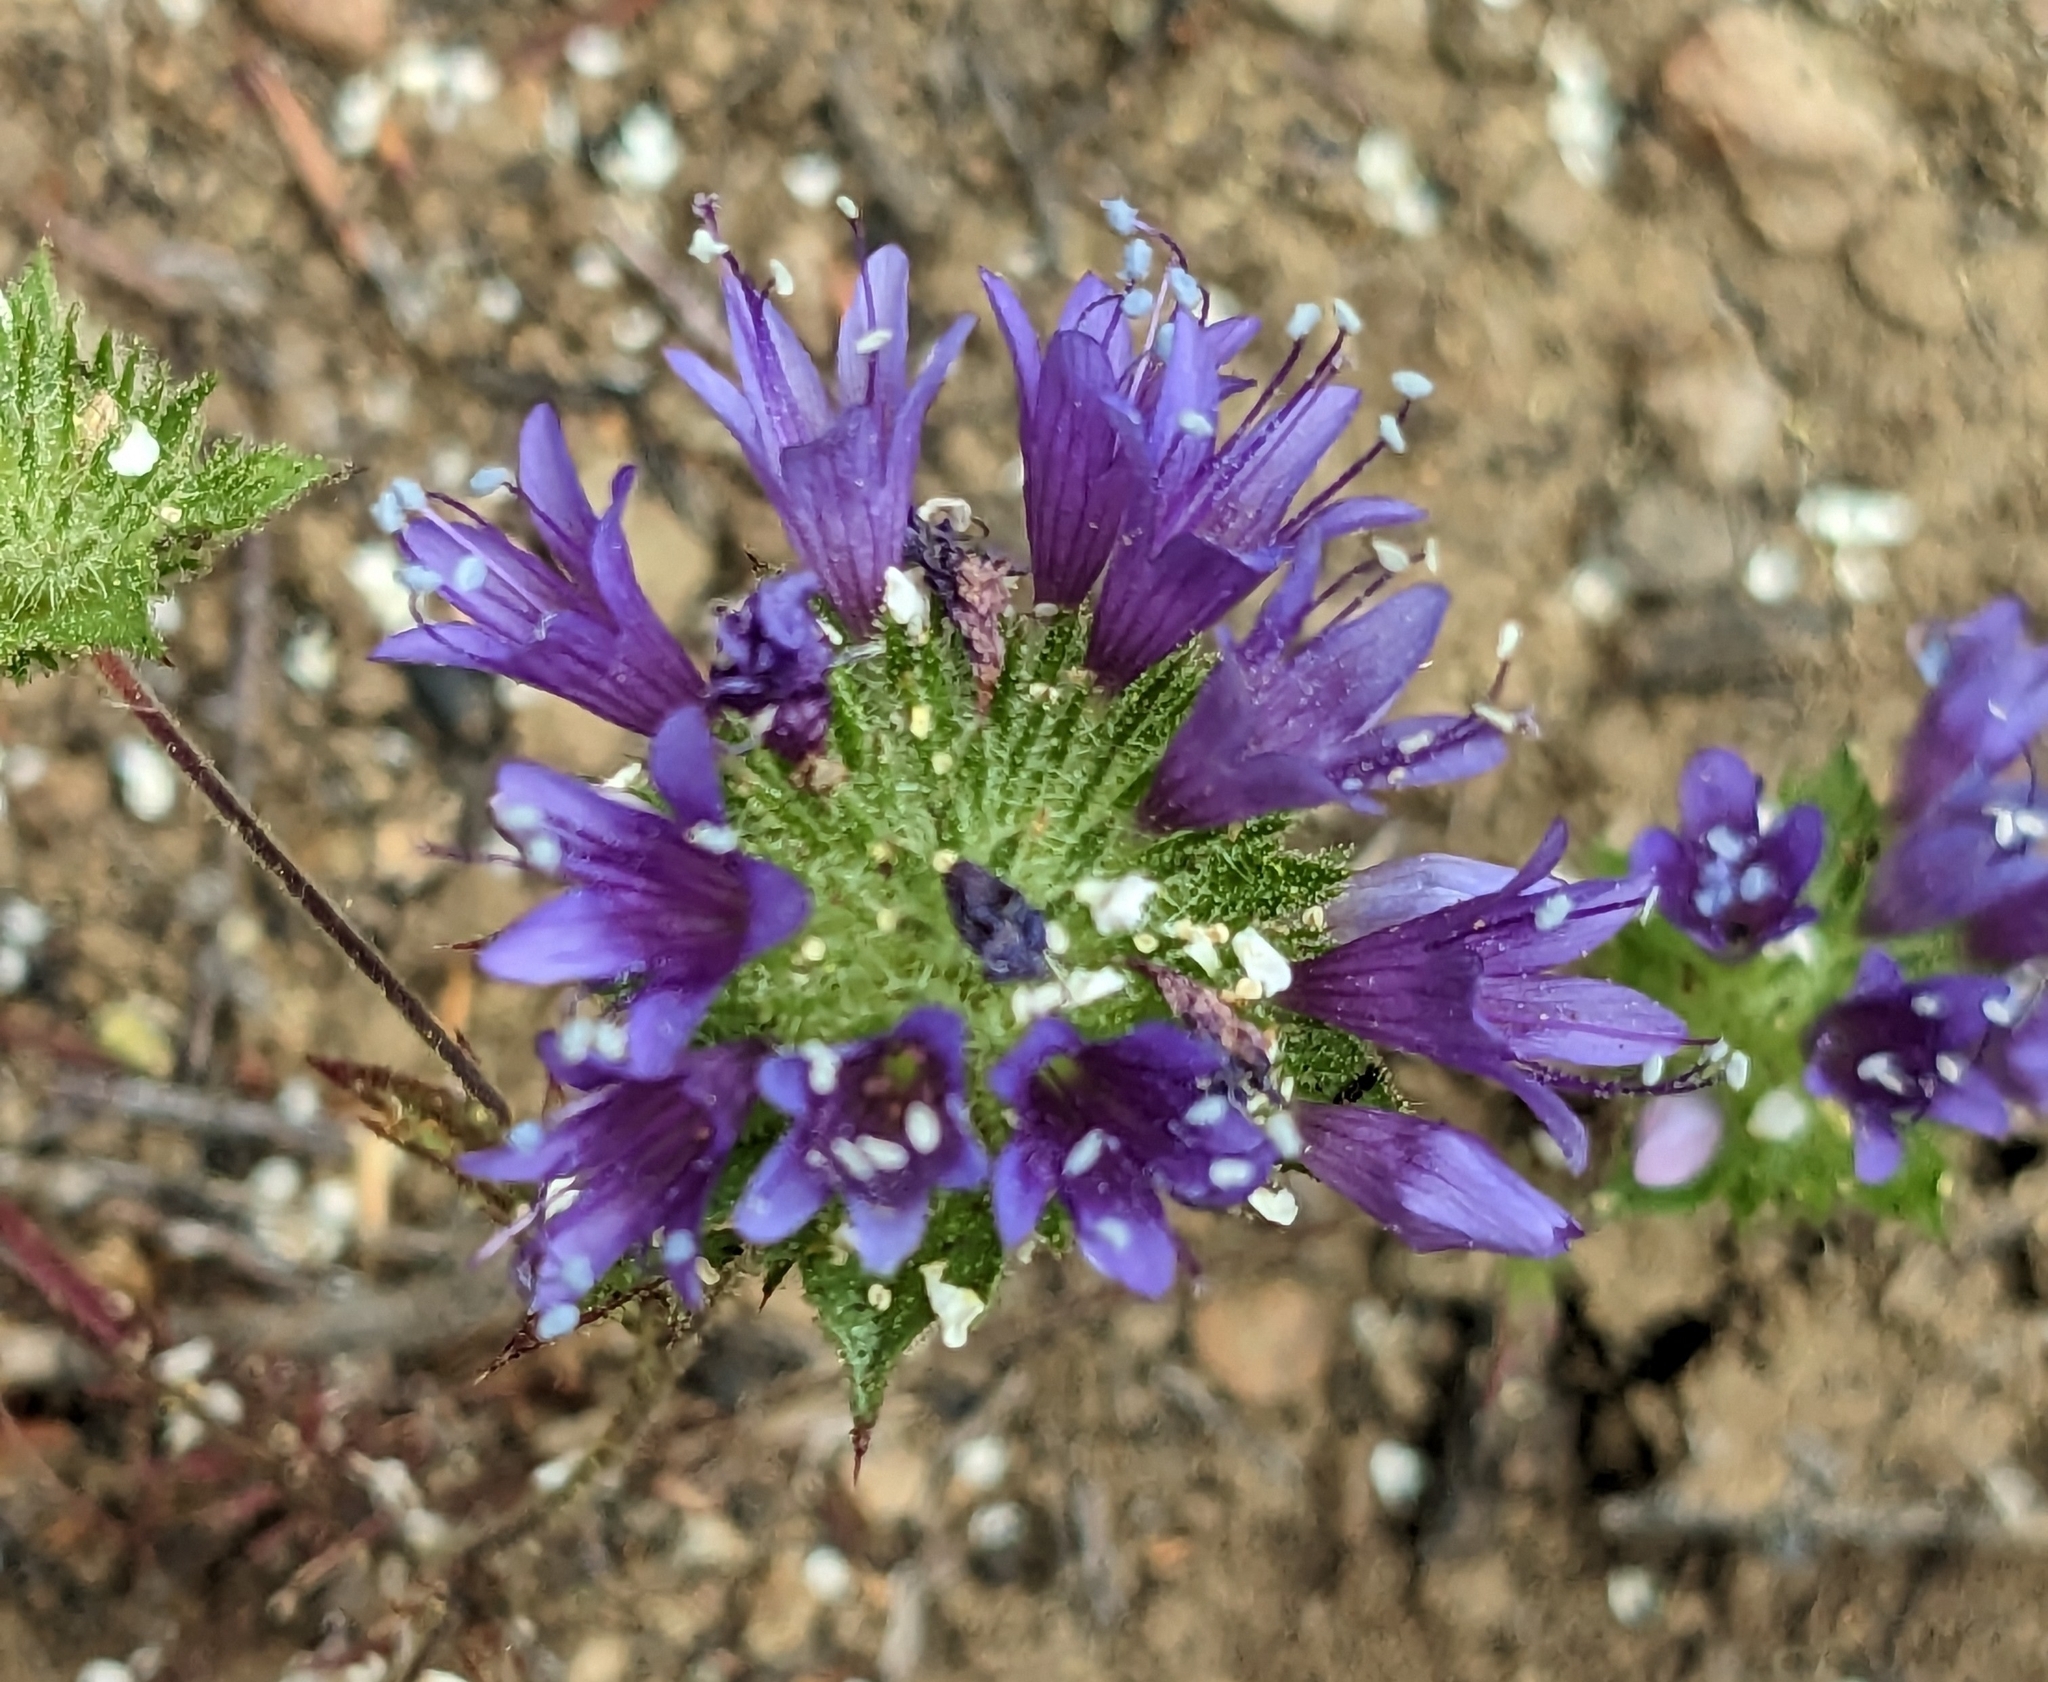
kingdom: Plantae
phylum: Tracheophyta
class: Magnoliopsida
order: Ericales
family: Polemoniaceae
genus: Navarretia
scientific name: Navarretia heterodoxa
